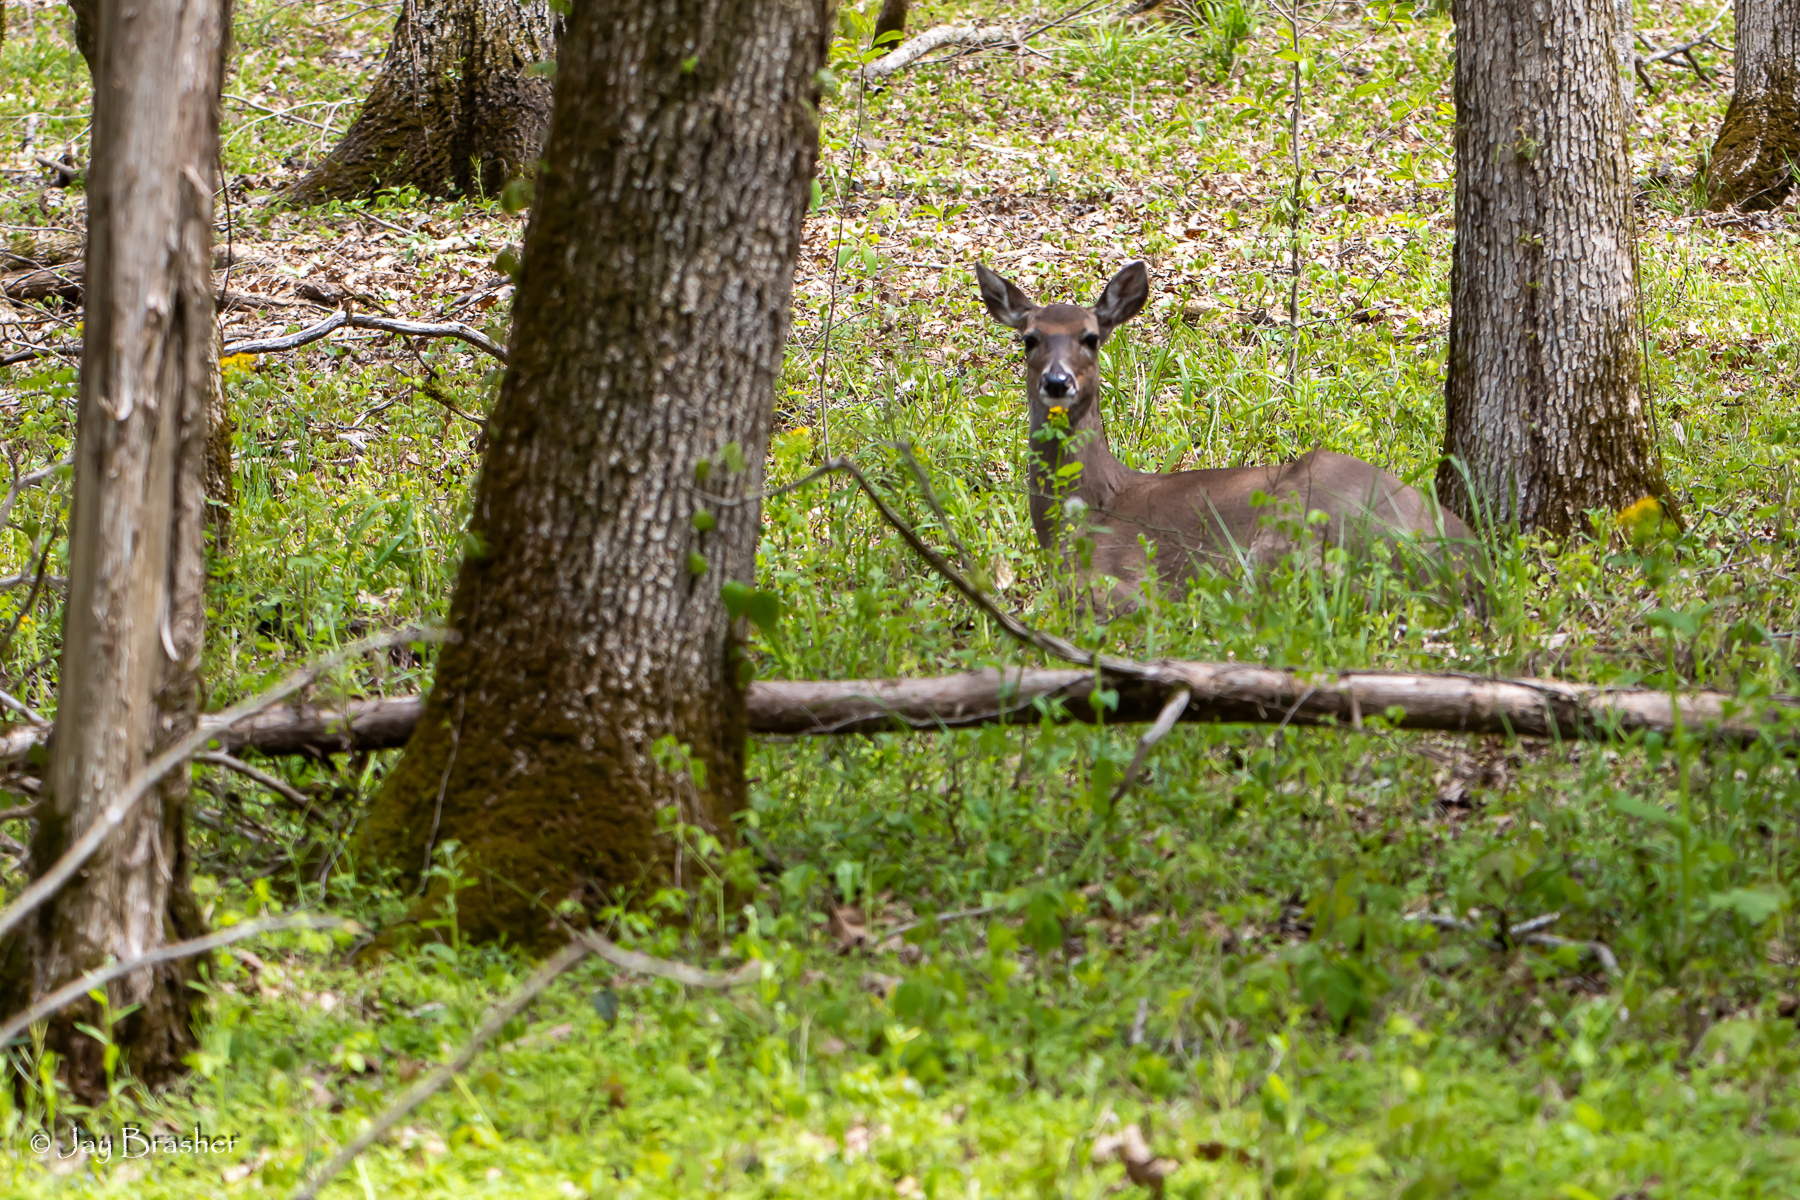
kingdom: Animalia
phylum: Chordata
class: Mammalia
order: Artiodactyla
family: Cervidae
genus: Odocoileus
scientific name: Odocoileus virginianus
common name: White-tailed deer
